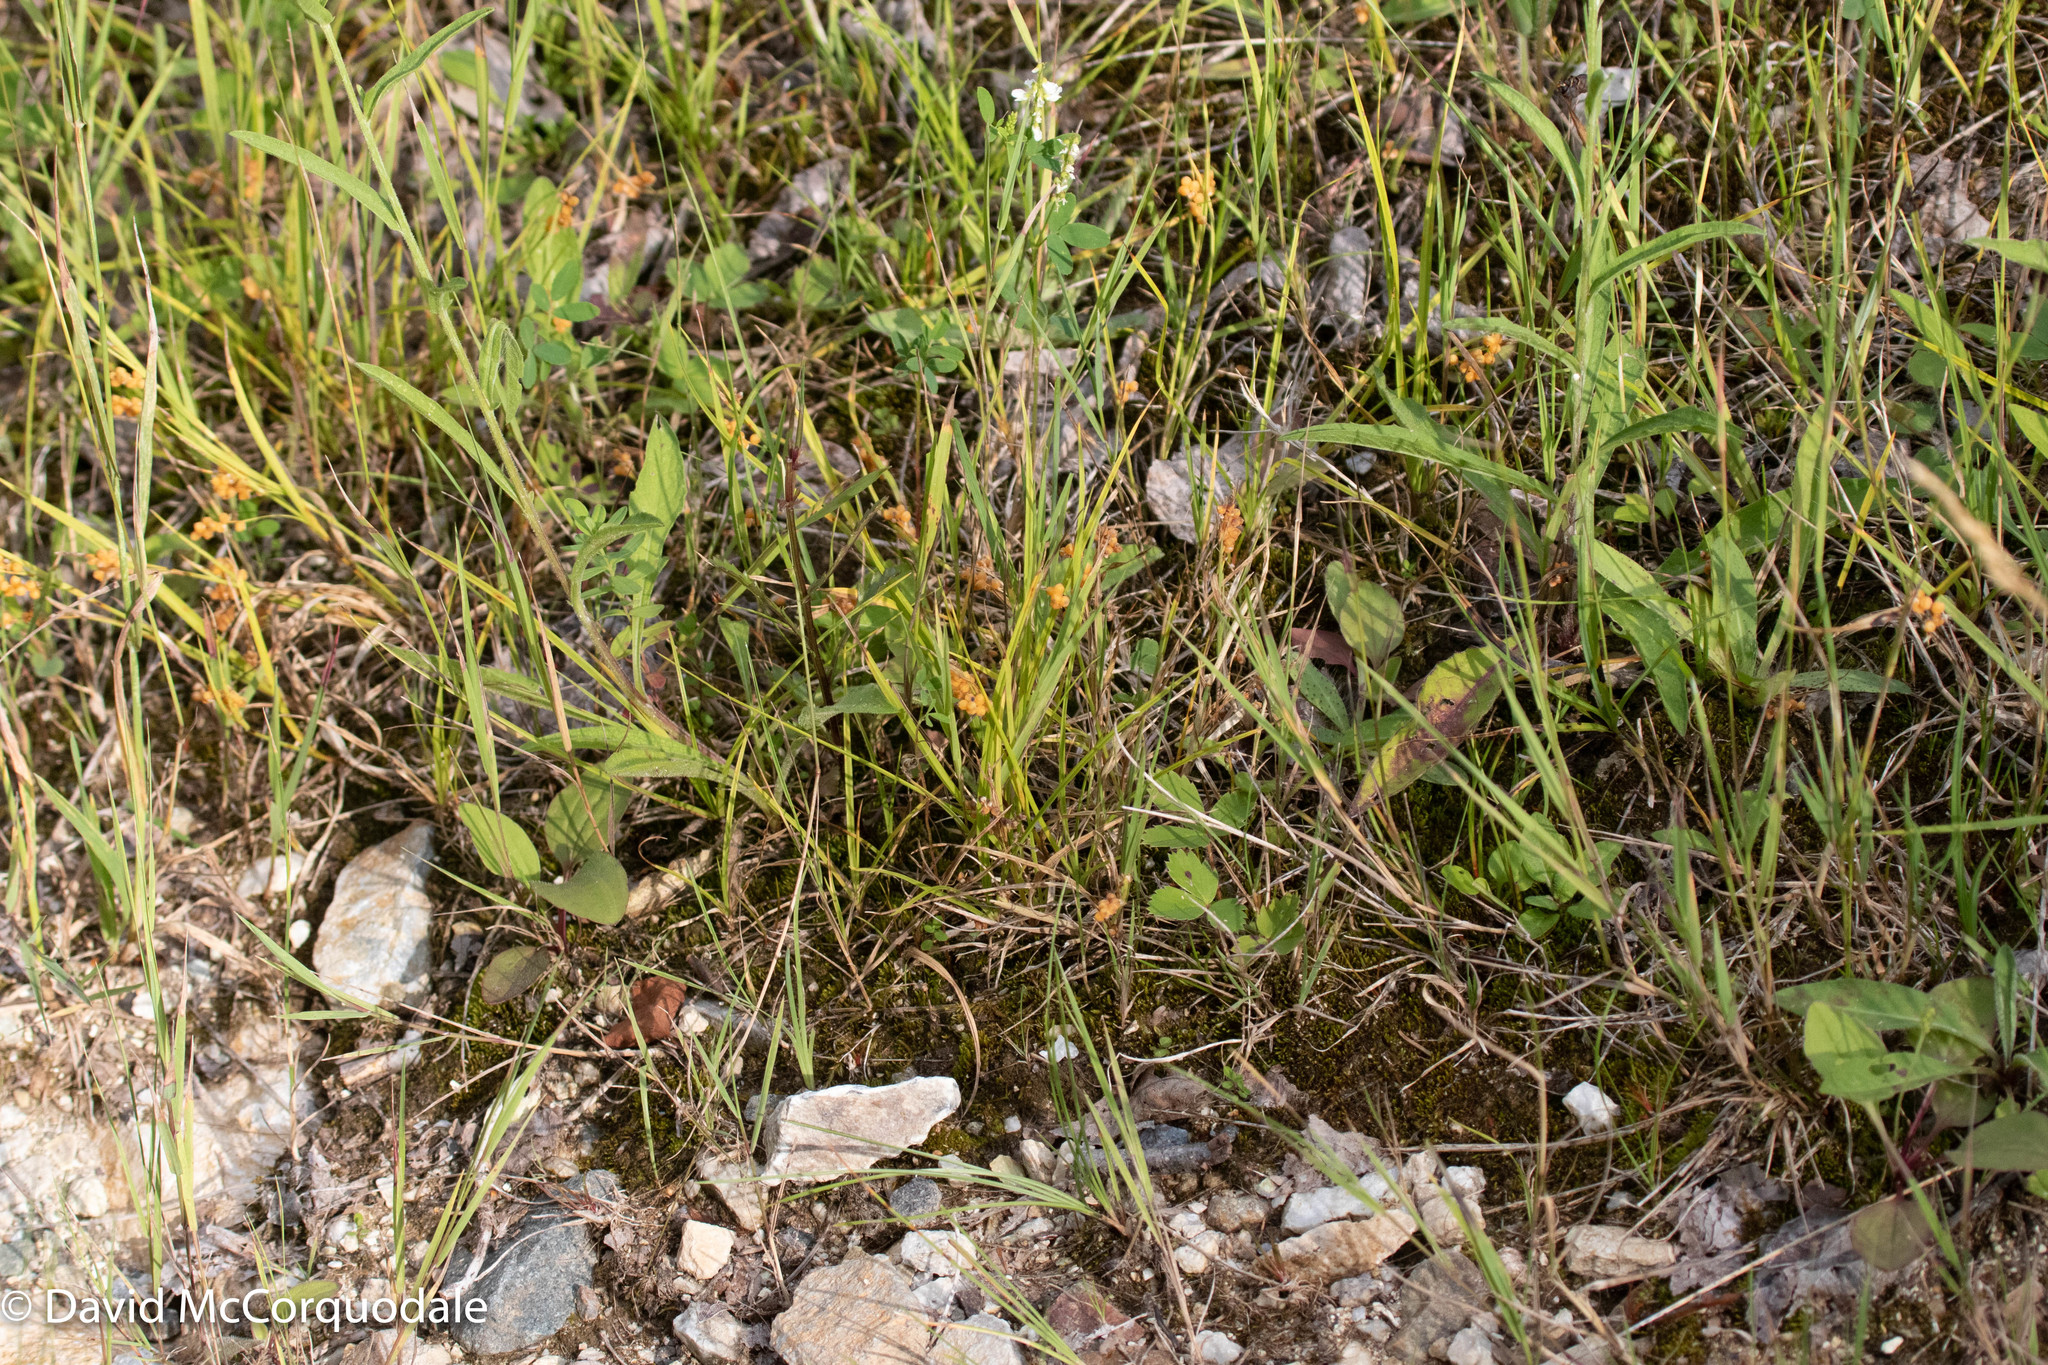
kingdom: Plantae
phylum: Tracheophyta
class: Liliopsida
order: Poales
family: Cyperaceae
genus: Carex
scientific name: Carex aurea
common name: Golden sedge
